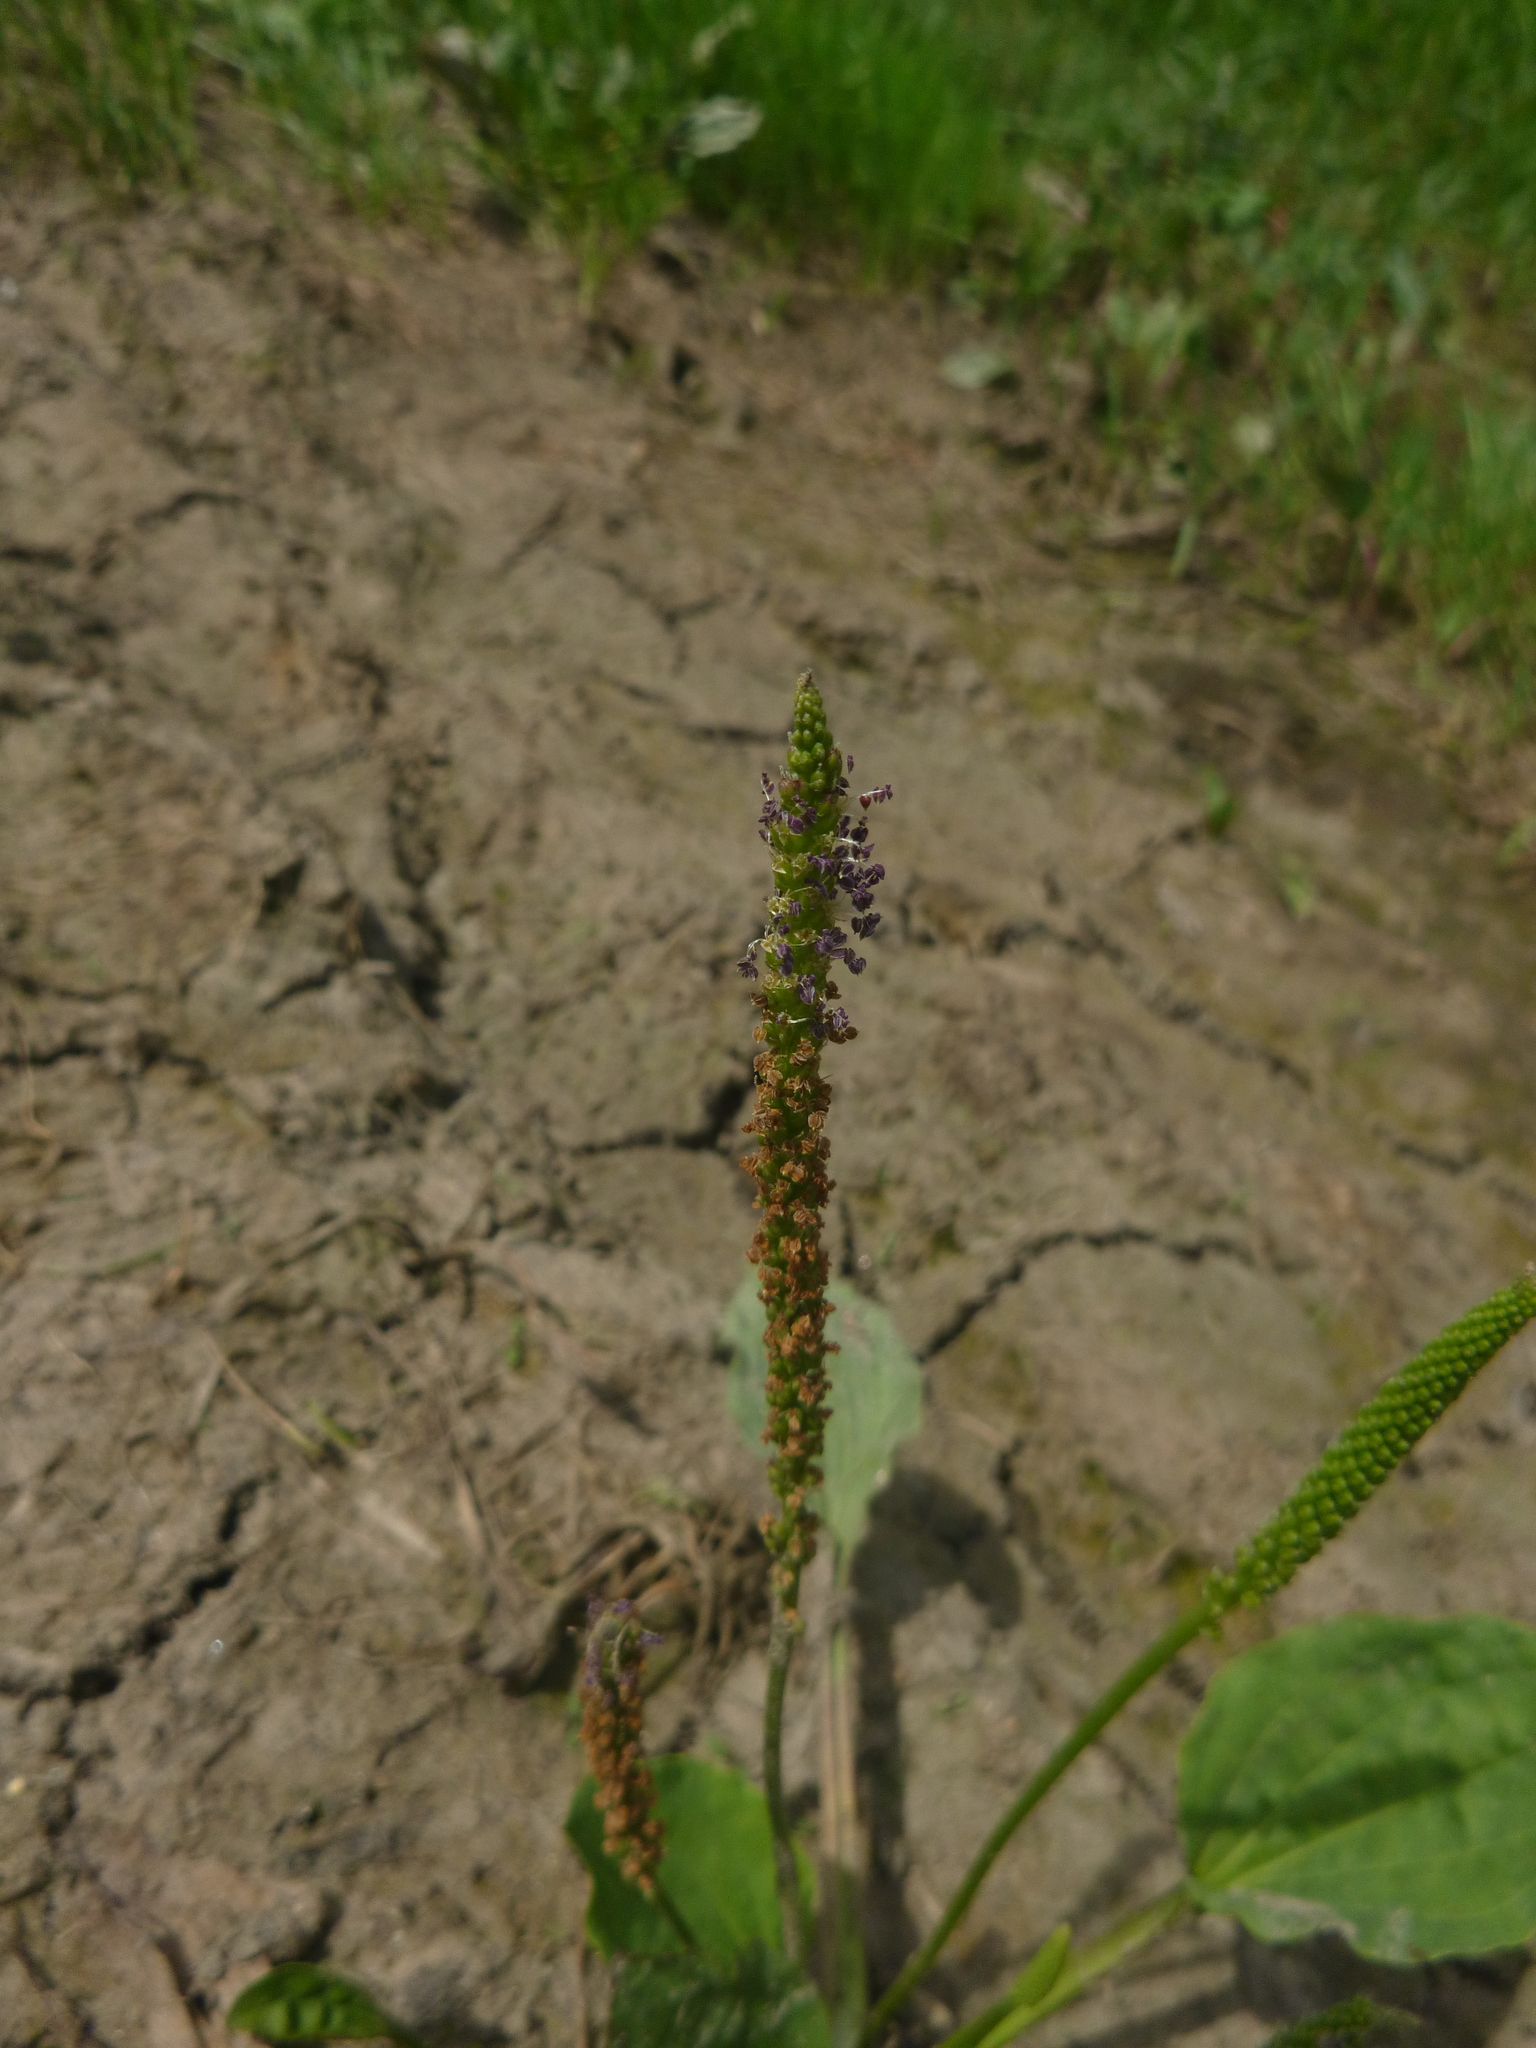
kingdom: Plantae
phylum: Tracheophyta
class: Magnoliopsida
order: Lamiales
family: Plantaginaceae
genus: Plantago
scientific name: Plantago major
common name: Common plantain
